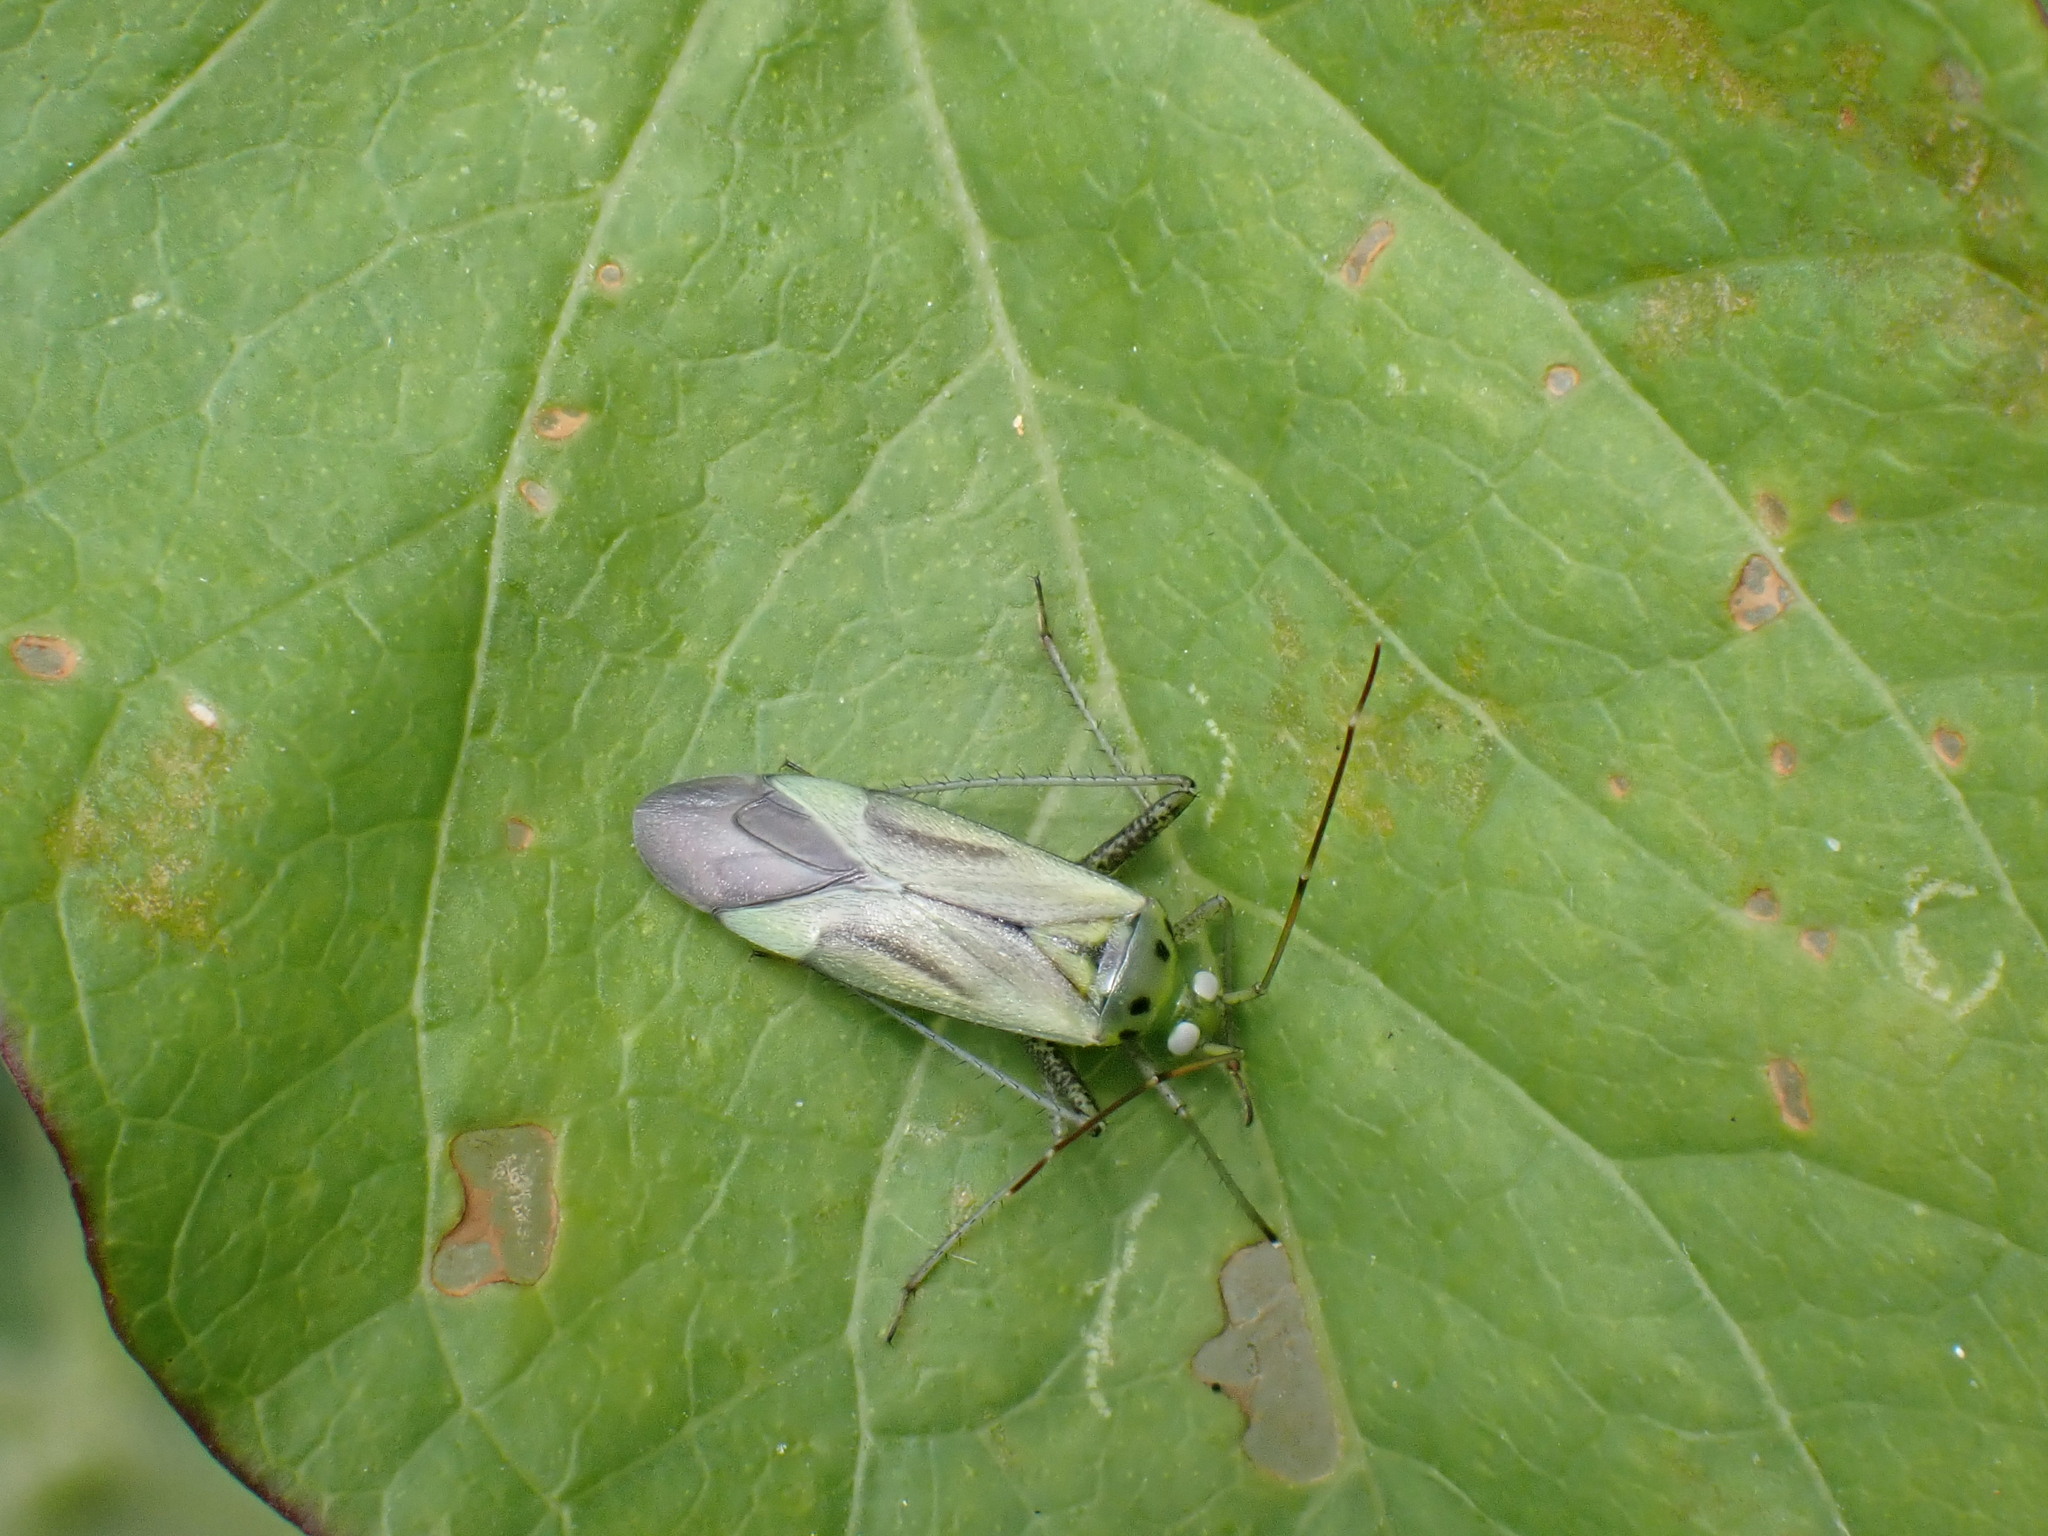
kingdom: Animalia
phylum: Arthropoda
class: Insecta
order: Hemiptera
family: Miridae
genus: Adelphocoris
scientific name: Adelphocoris quadripunctatus
